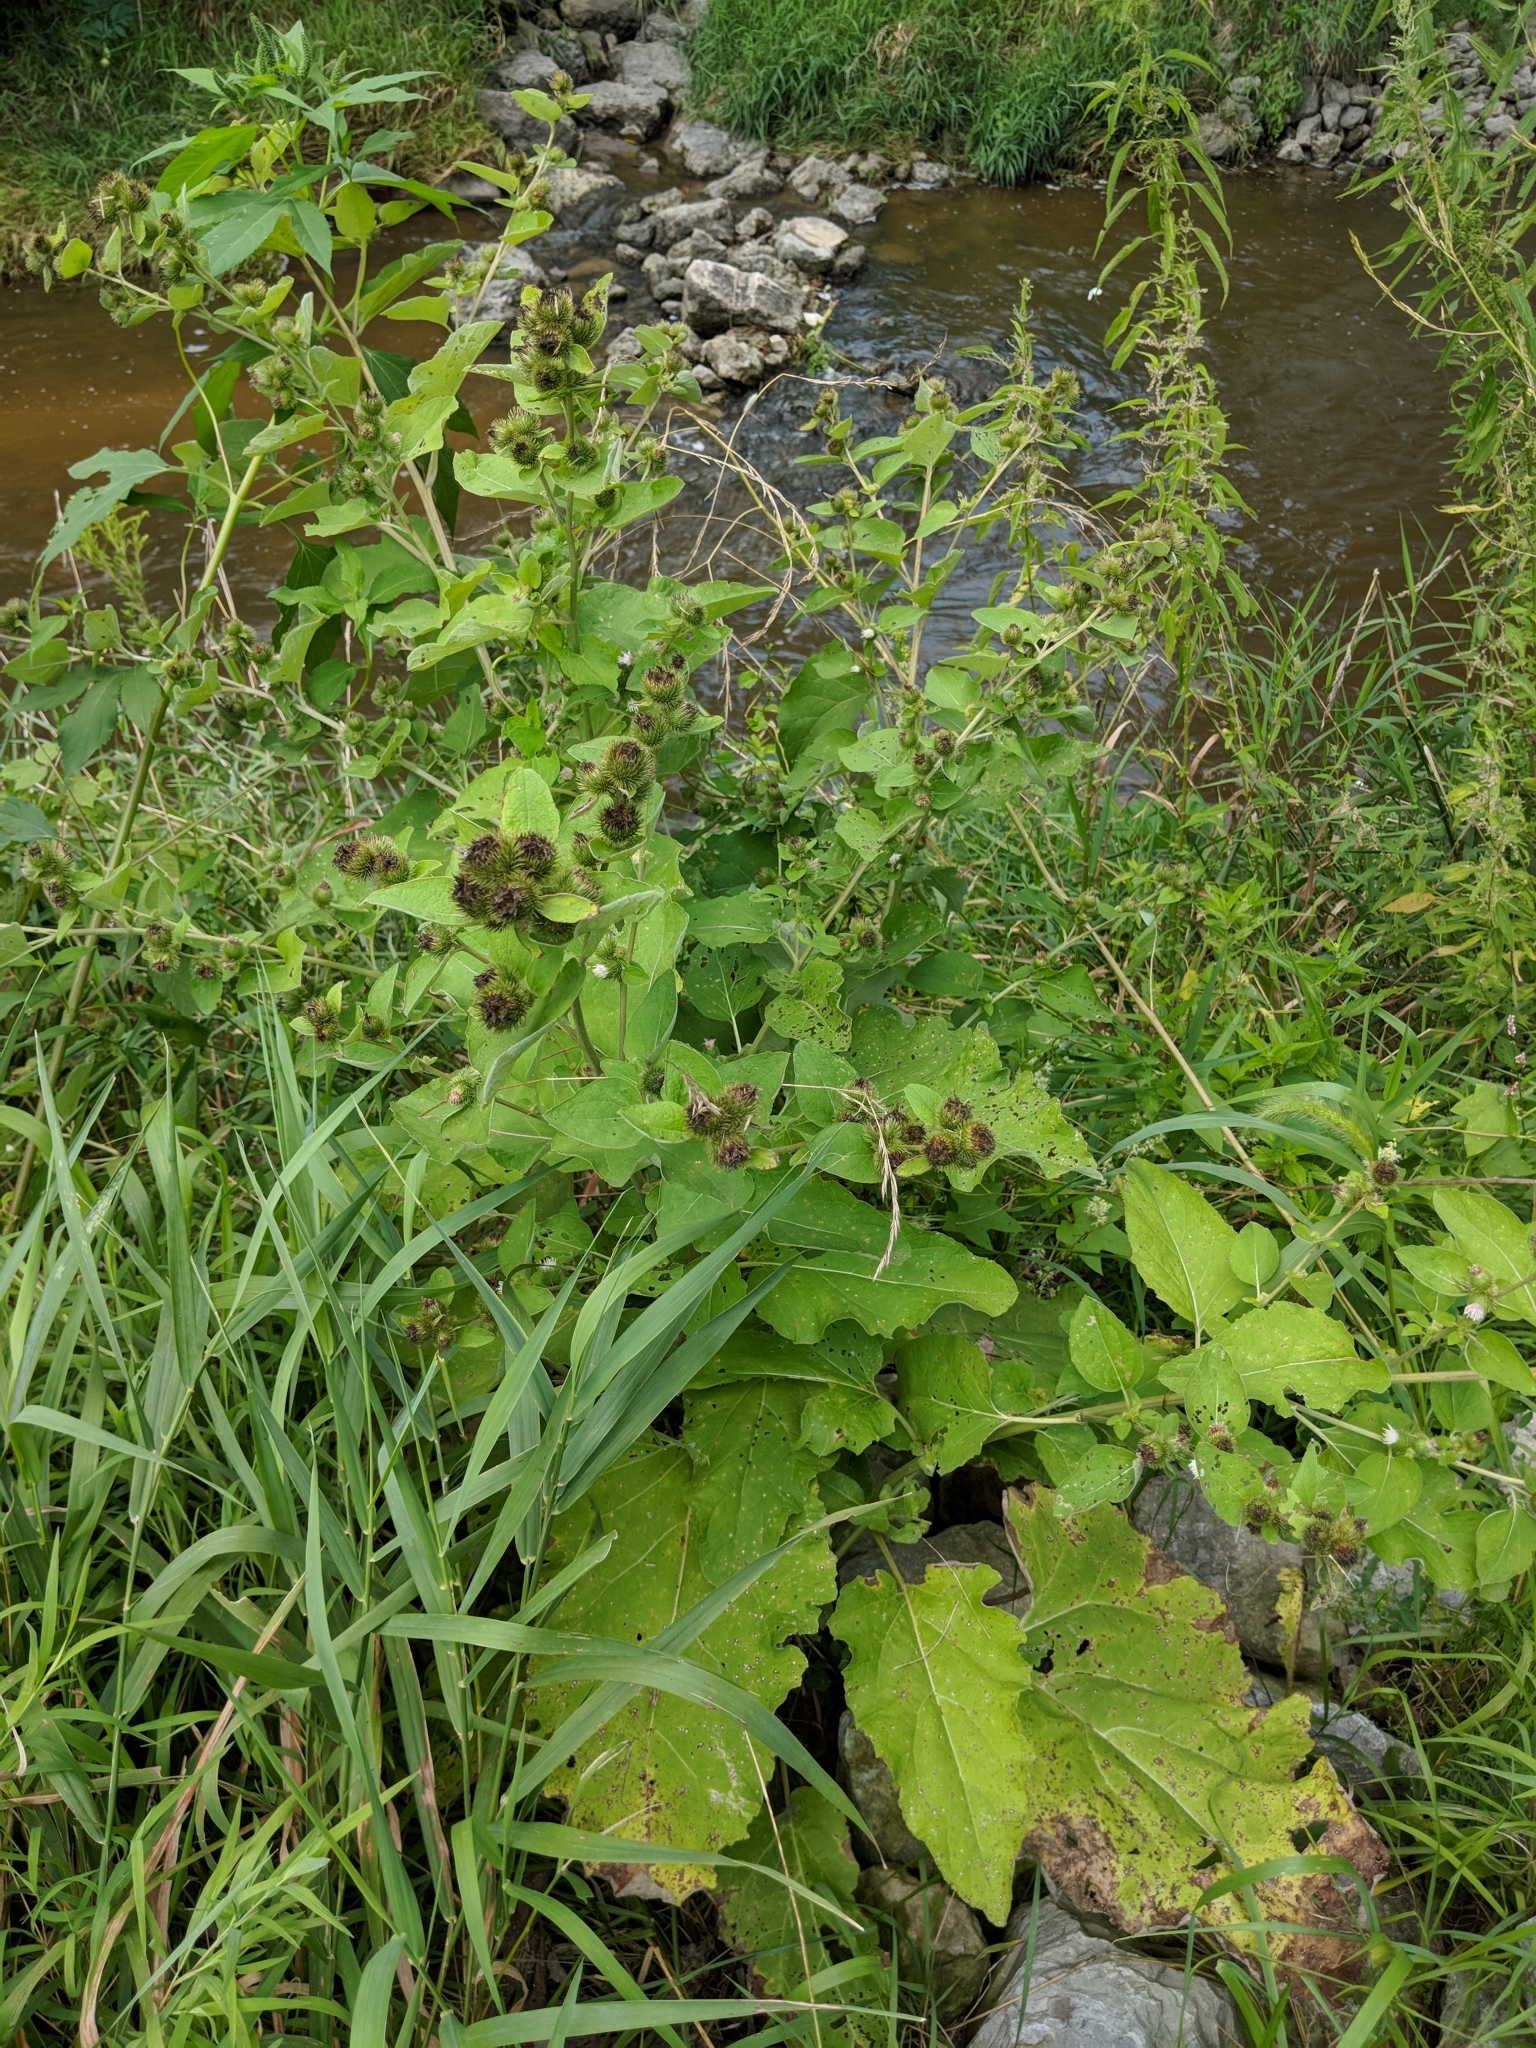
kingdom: Plantae
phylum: Tracheophyta
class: Magnoliopsida
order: Asterales
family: Asteraceae
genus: Arctium
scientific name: Arctium minus
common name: Lesser burdock
